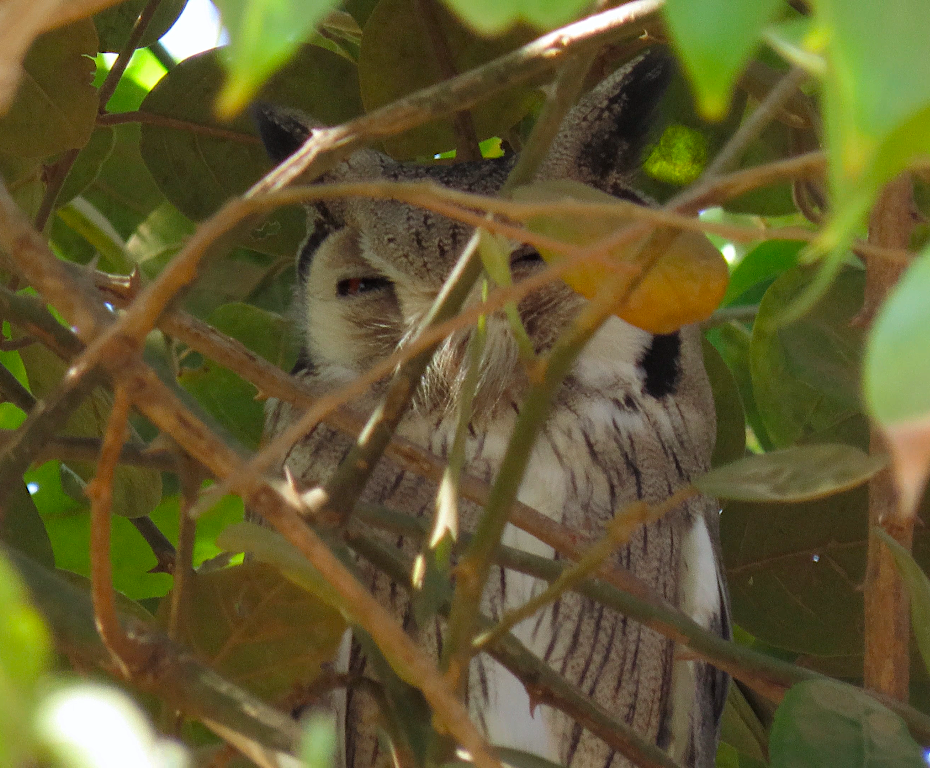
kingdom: Animalia
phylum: Chordata
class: Aves
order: Strigiformes
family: Strigidae
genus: Ptilopsis
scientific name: Ptilopsis leucotis
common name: Northern white-faced owl
